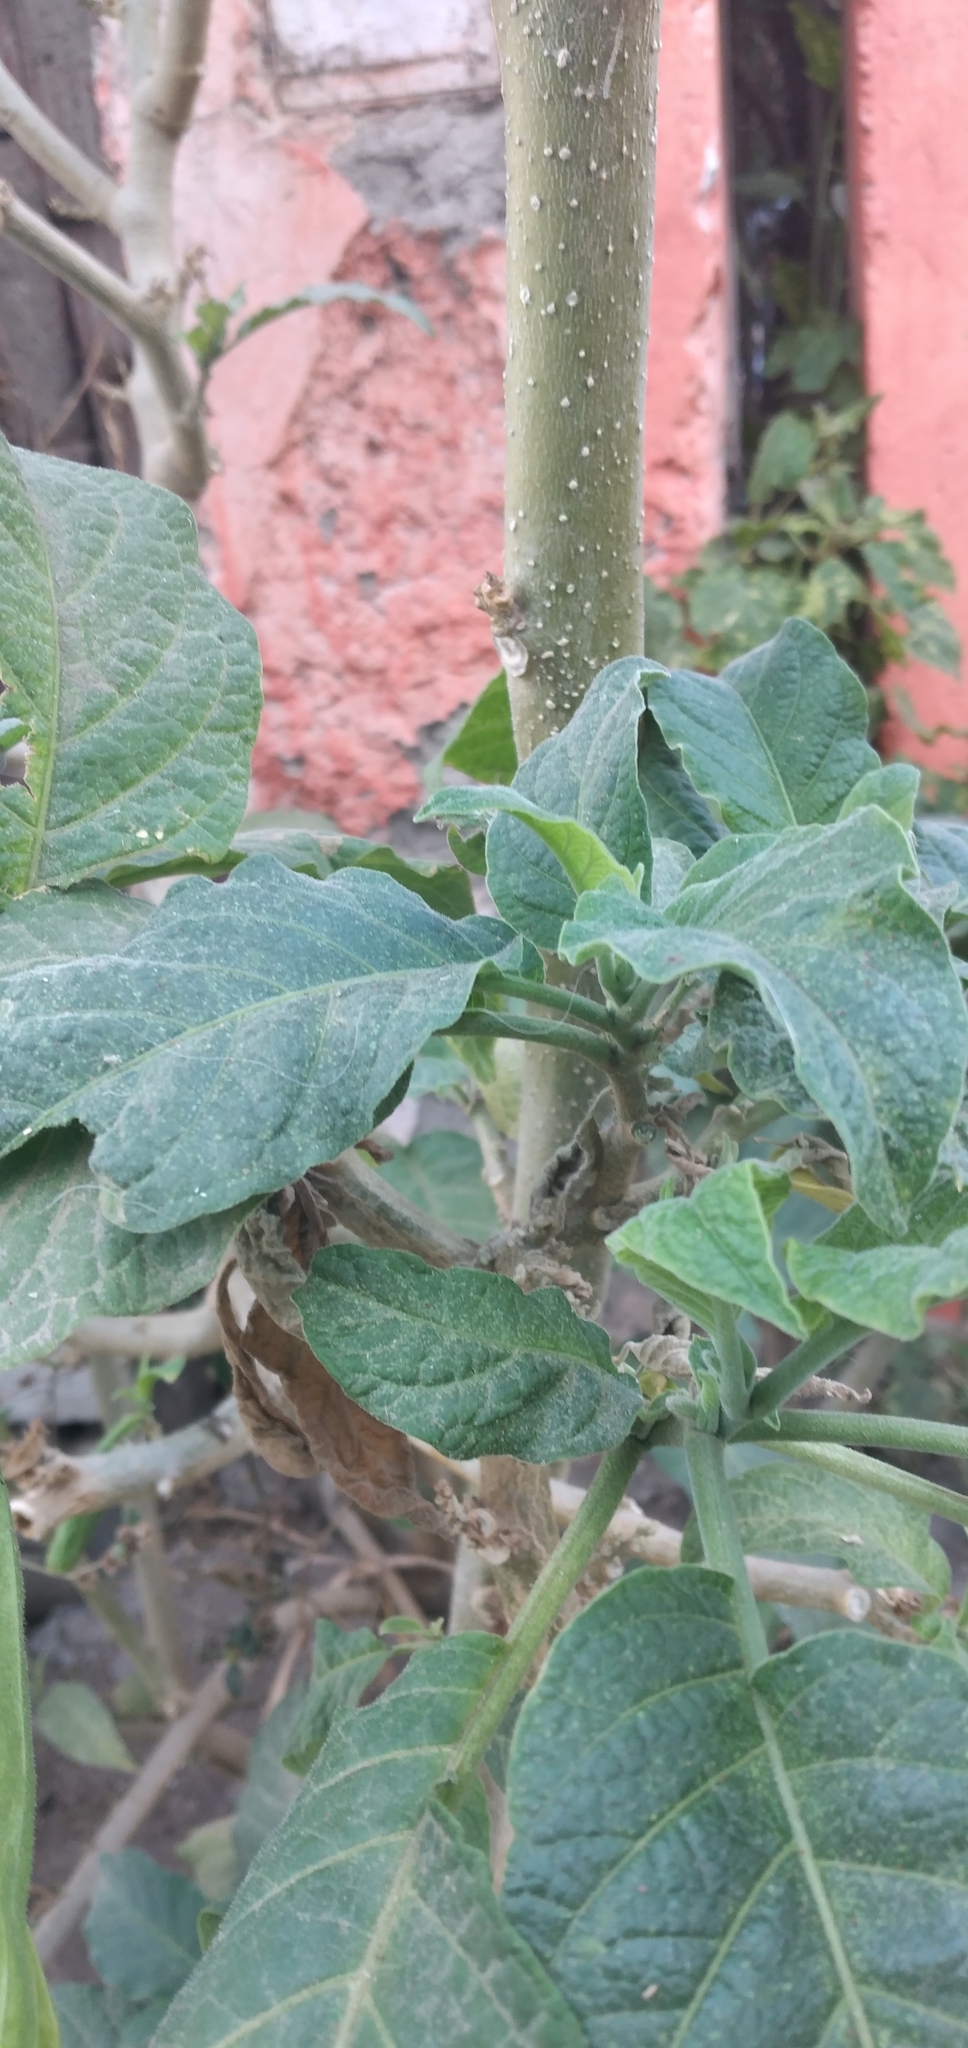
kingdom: Plantae
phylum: Tracheophyta
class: Magnoliopsida
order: Solanales
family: Solanaceae
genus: Brugmansia
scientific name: Brugmansia arborea
